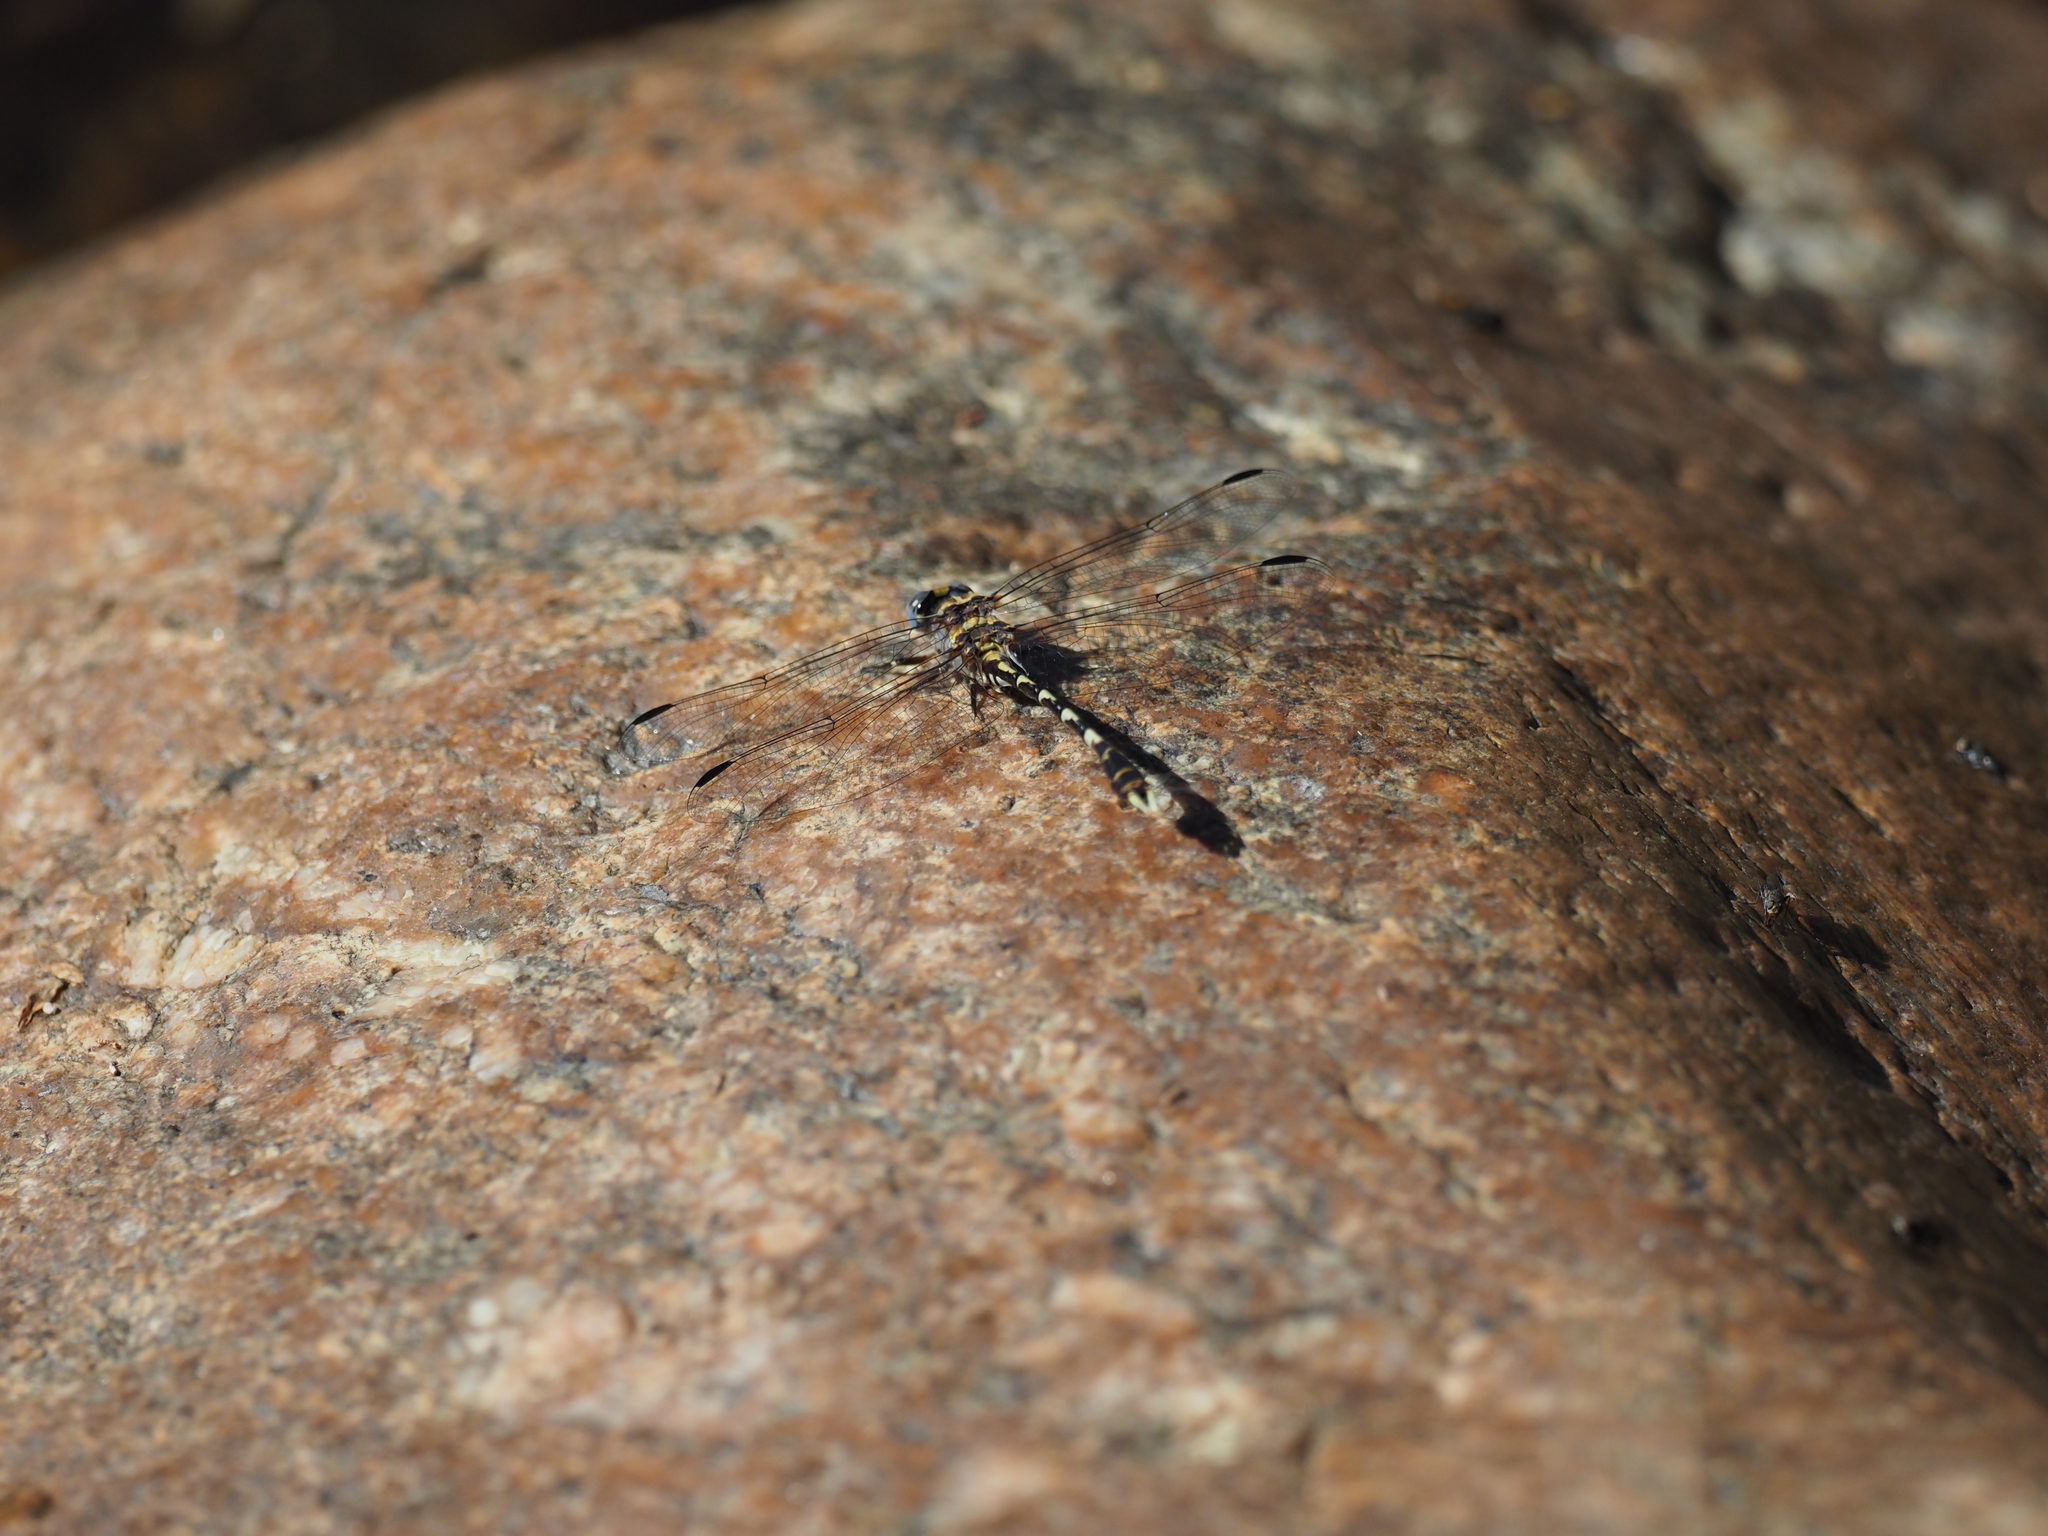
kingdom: Animalia
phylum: Arthropoda
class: Insecta
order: Odonata
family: Gomphidae
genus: Progomphus
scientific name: Progomphus borealis
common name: Gray sanddragon
